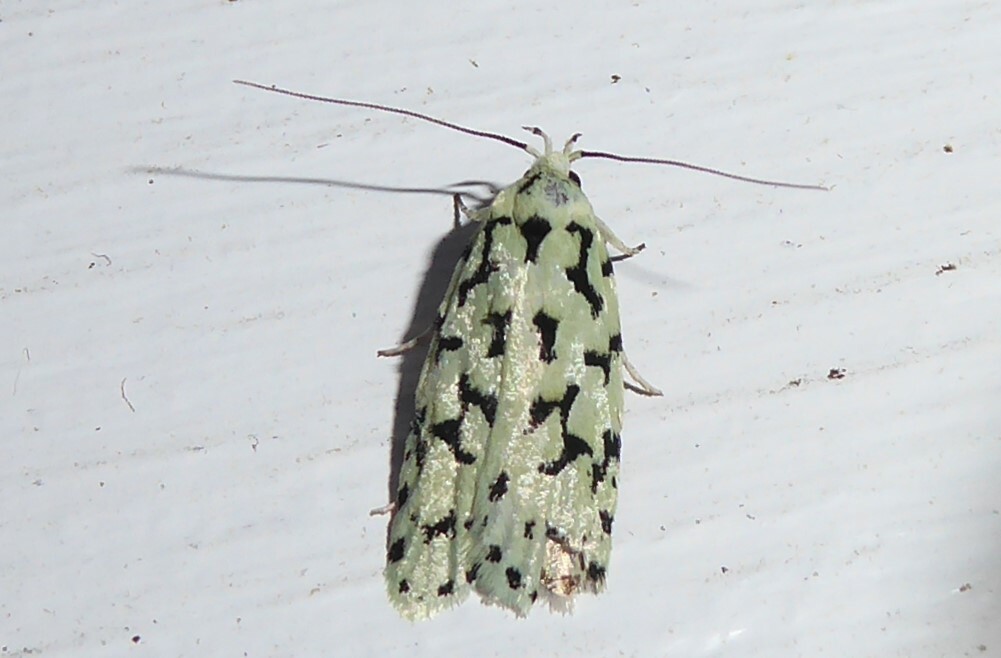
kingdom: Animalia
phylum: Arthropoda
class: Insecta
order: Lepidoptera
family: Oecophoridae
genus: Izatha
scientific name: Izatha huttoni
